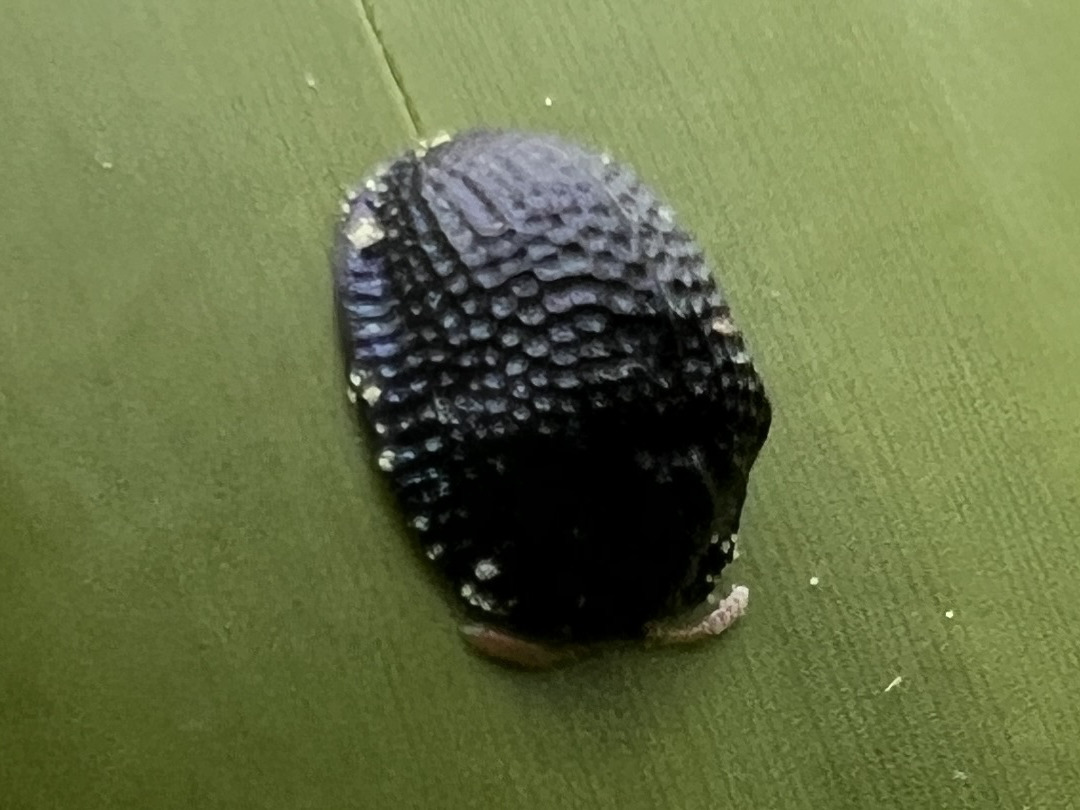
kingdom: Animalia
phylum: Arthropoda
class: Insecta
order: Coleoptera
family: Chrysomelidae
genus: Hemisphaerota
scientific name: Hemisphaerota cyanea
